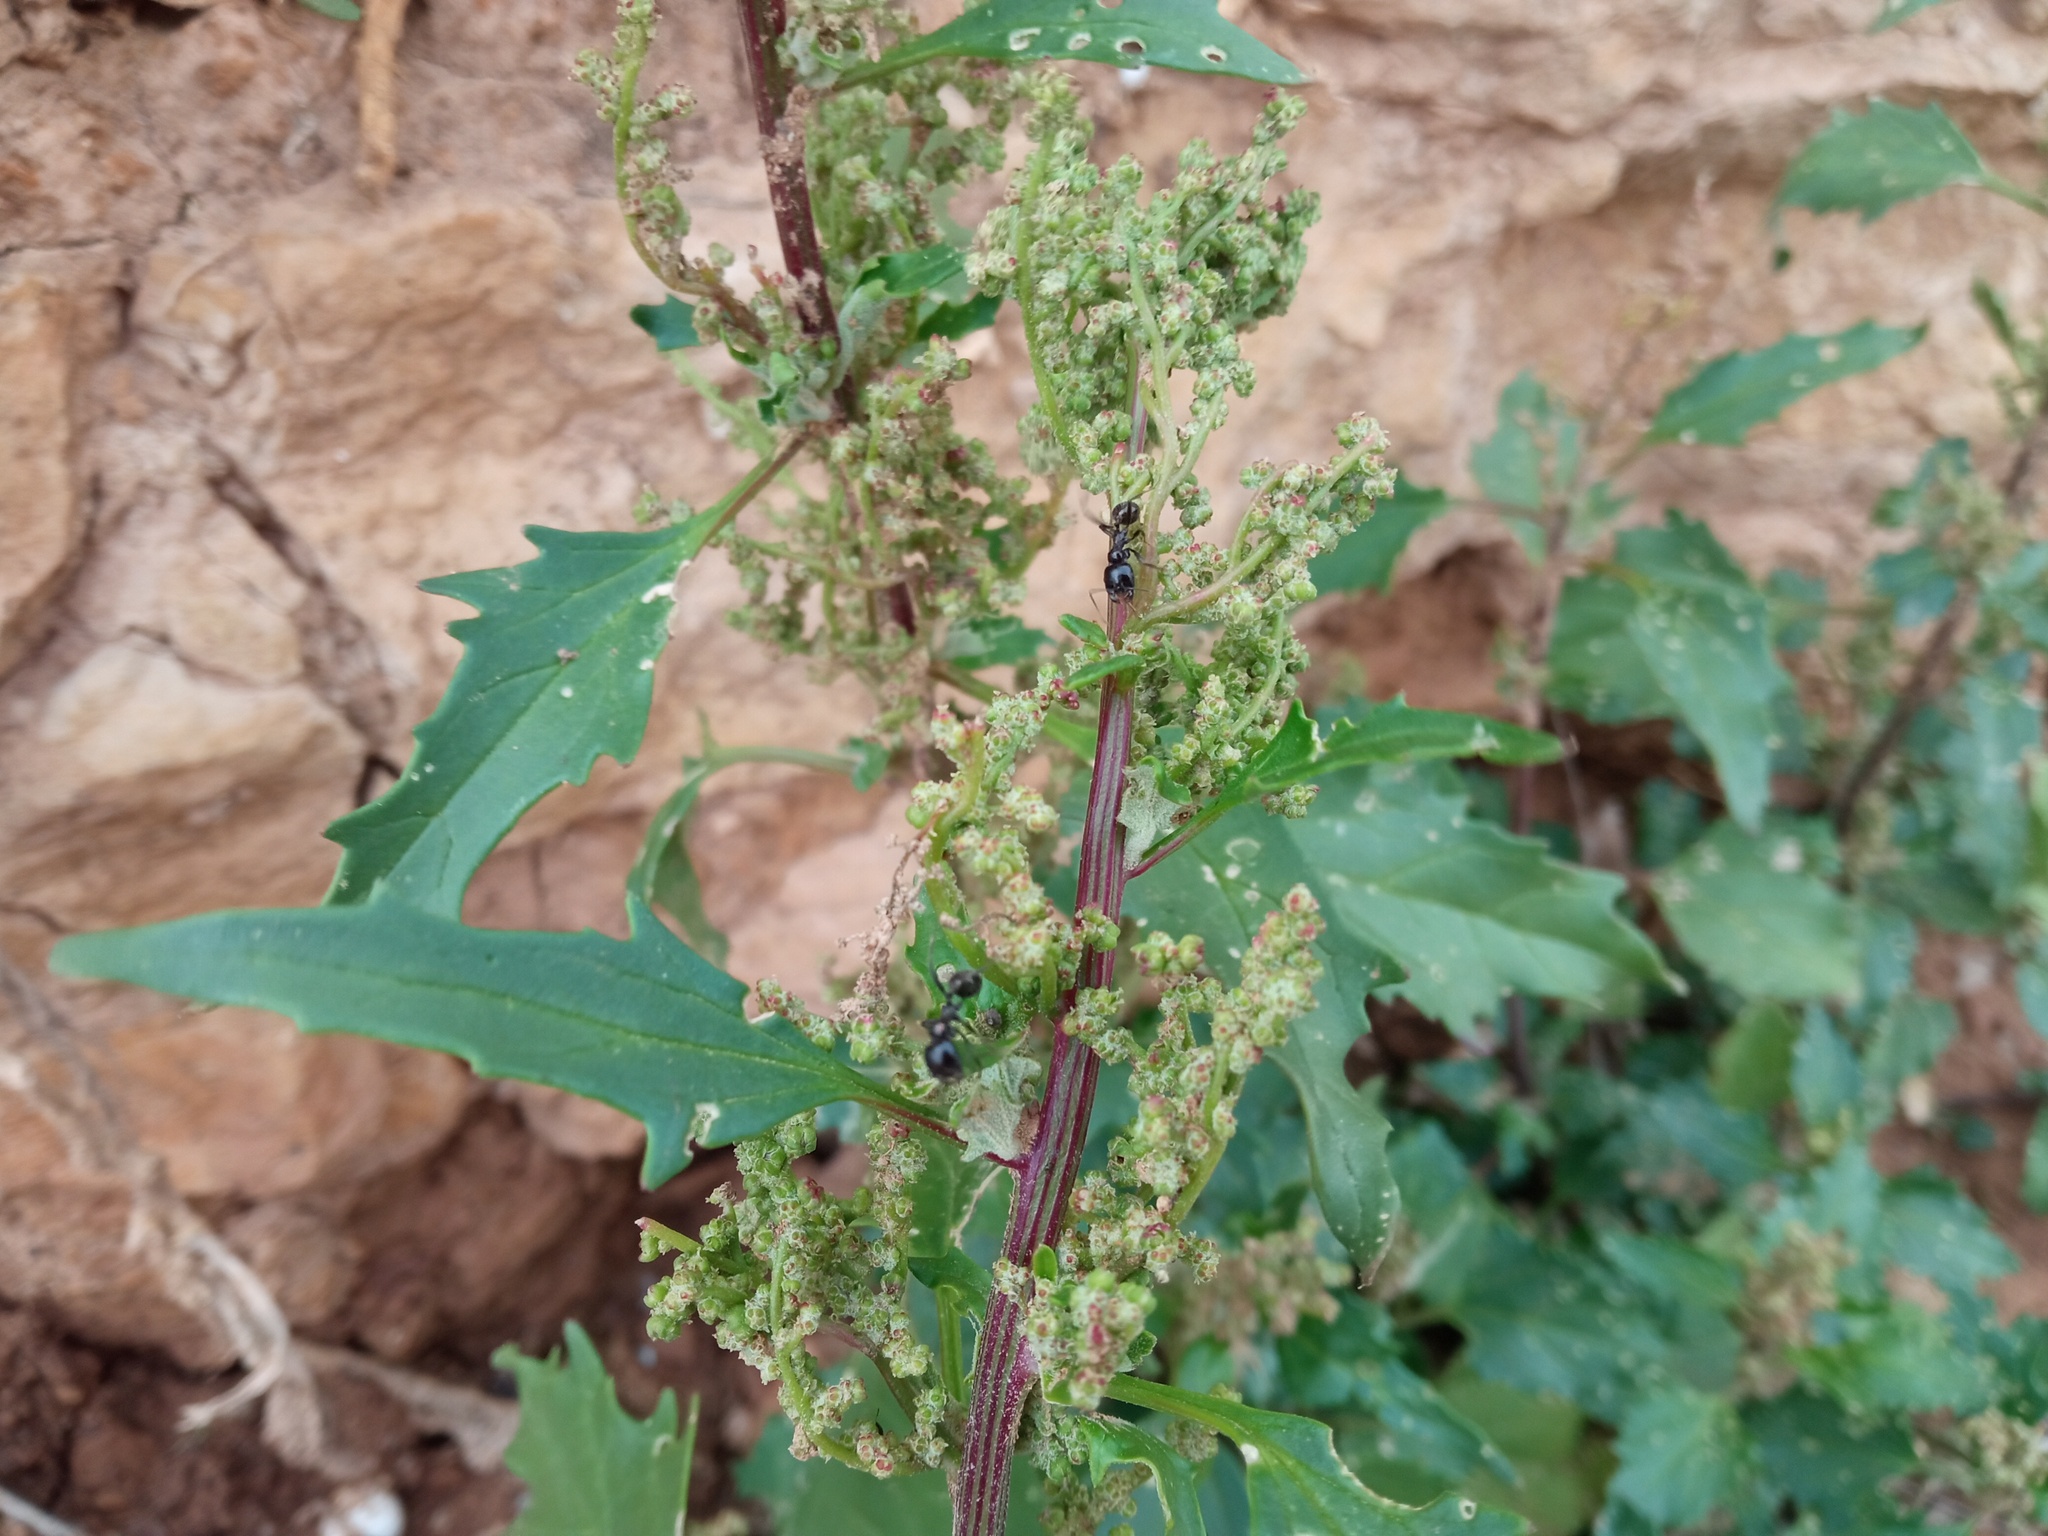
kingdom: Plantae
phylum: Tracheophyta
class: Magnoliopsida
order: Caryophyllales
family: Amaranthaceae
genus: Chenopodiastrum
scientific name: Chenopodiastrum murale
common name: Sowbane
